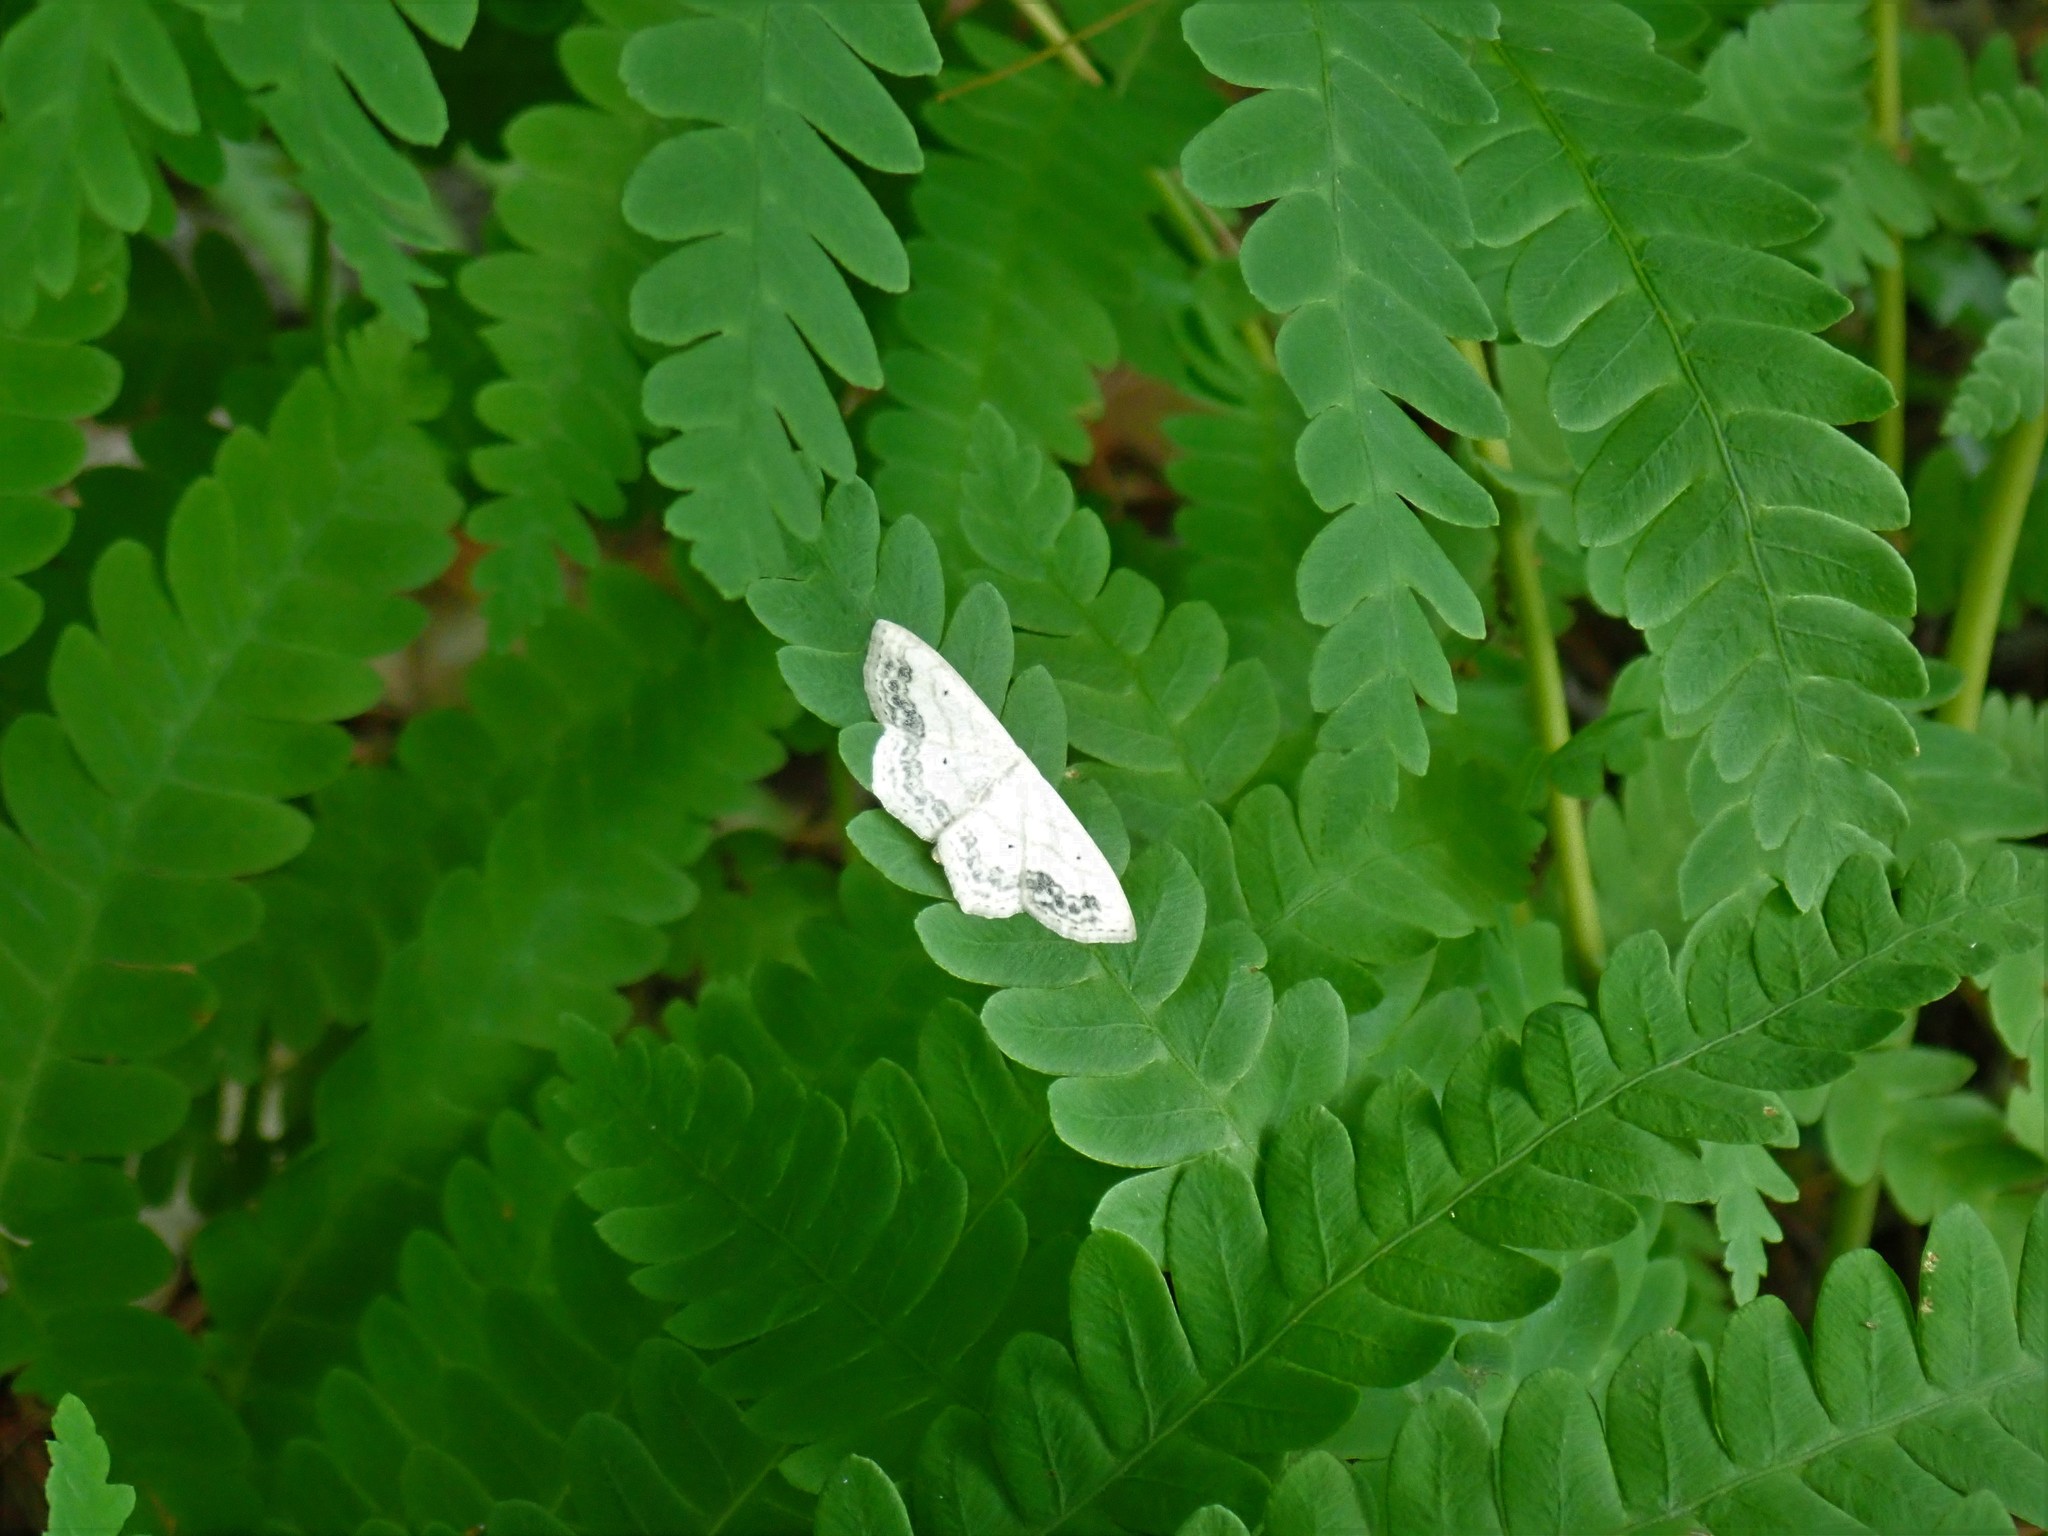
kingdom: Animalia
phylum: Arthropoda
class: Insecta
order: Lepidoptera
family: Geometridae
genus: Scopula
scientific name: Scopula limboundata
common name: Large lace border
